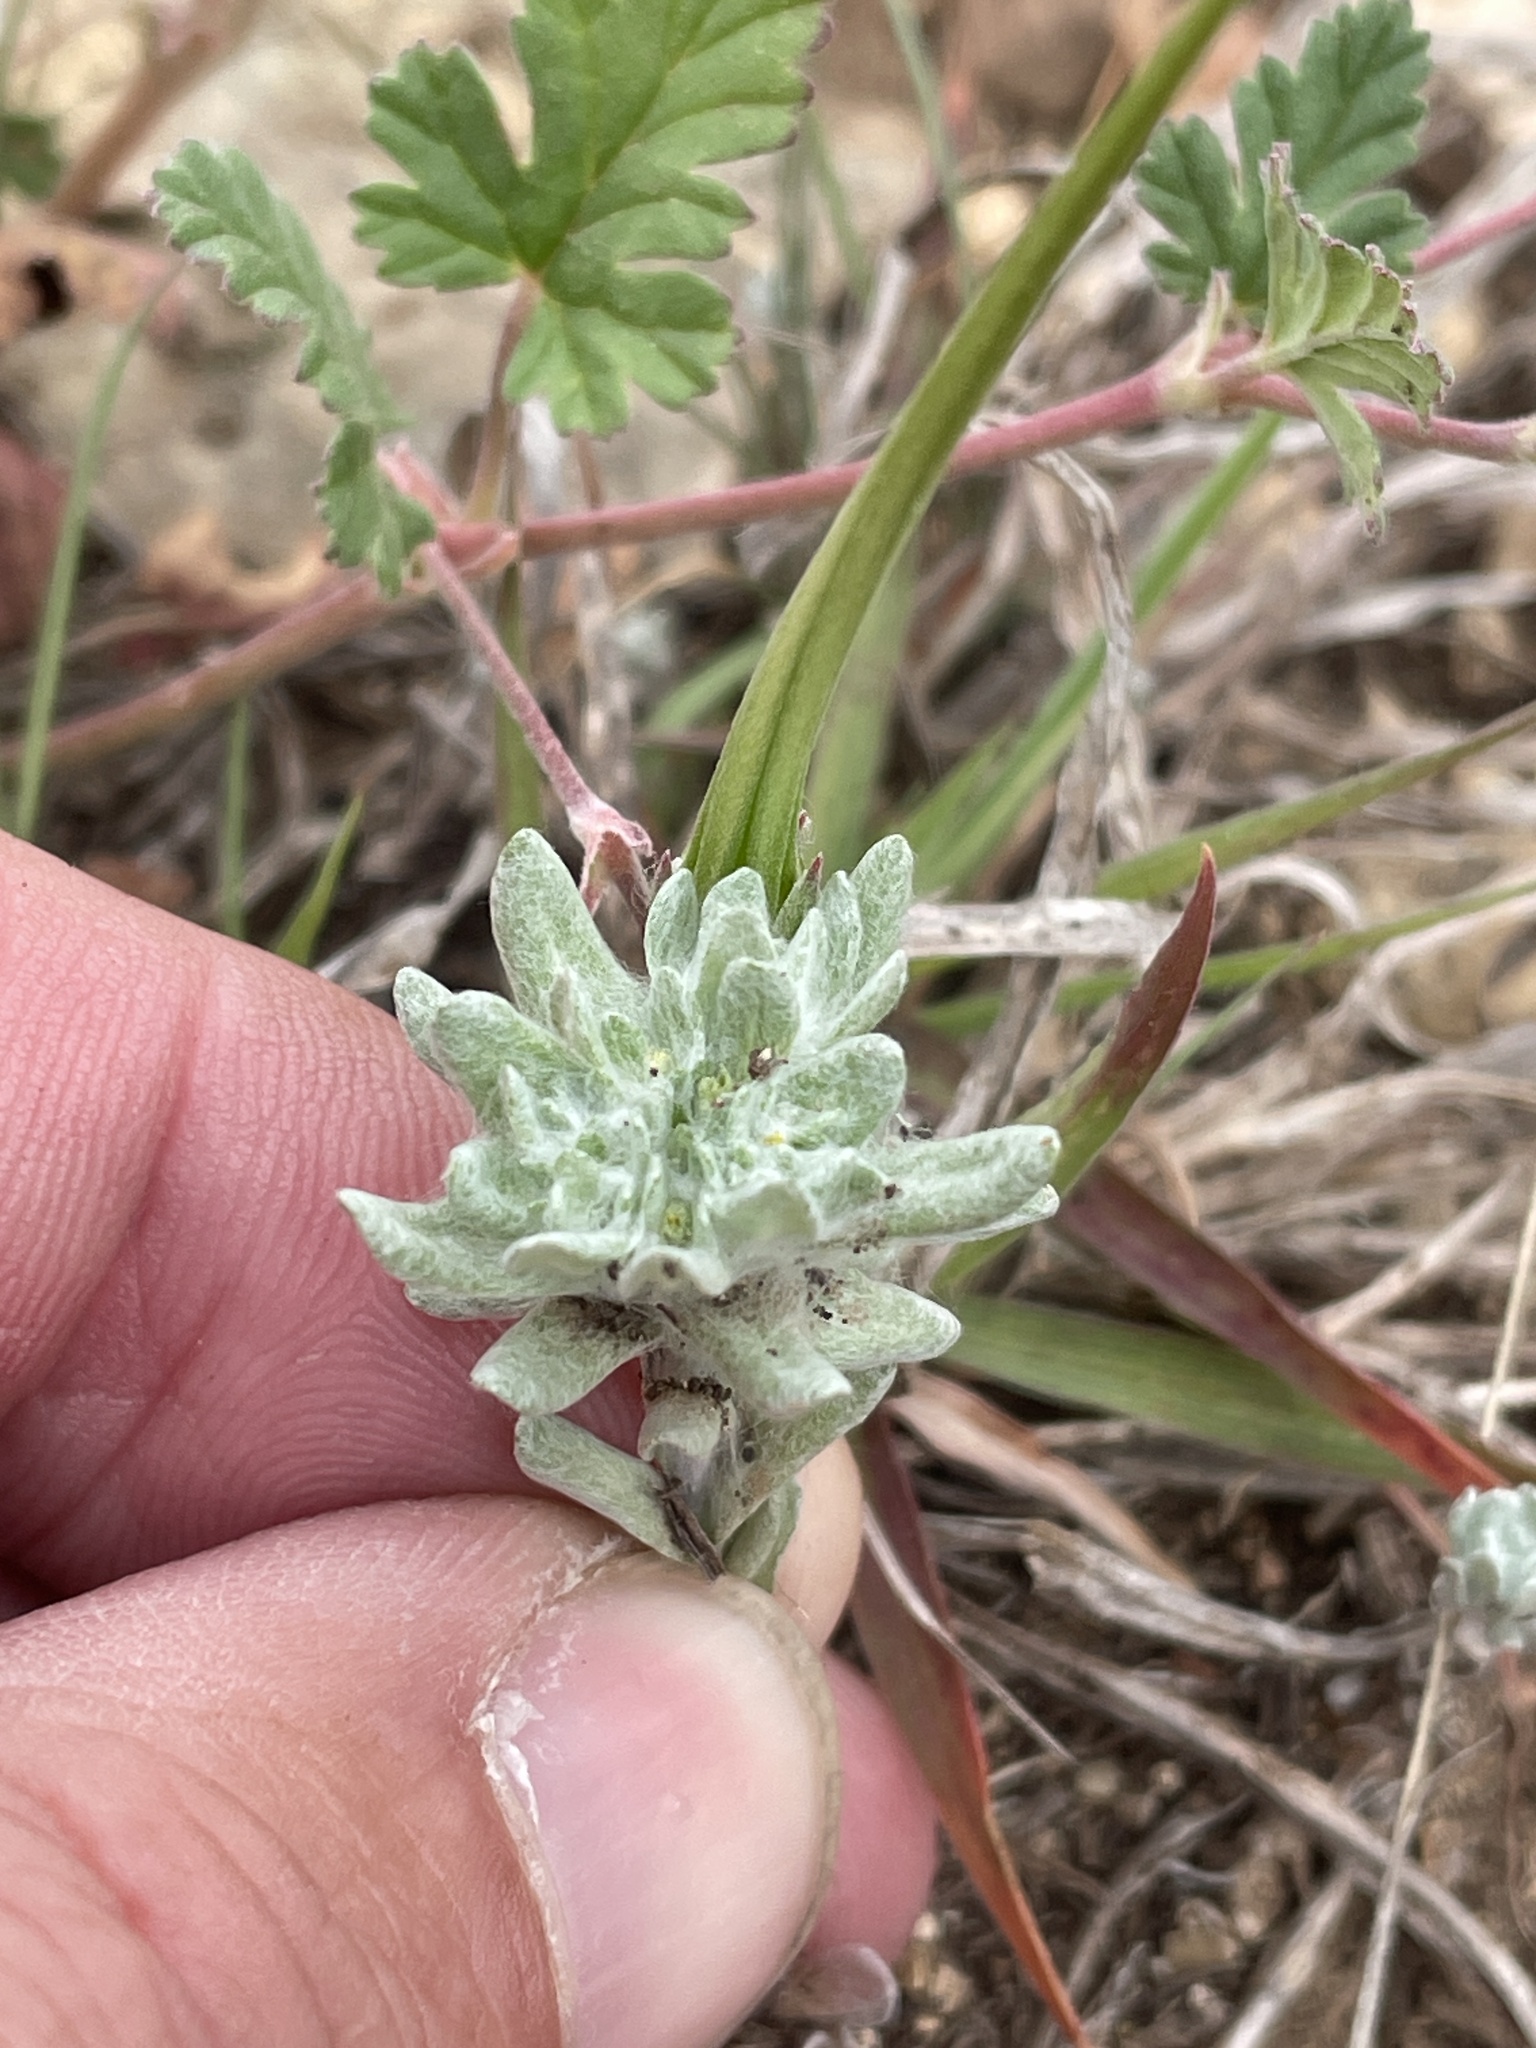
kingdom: Plantae
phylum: Tracheophyta
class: Magnoliopsida
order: Asterales
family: Asteraceae
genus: Diaperia
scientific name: Diaperia prolifera
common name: Big-head rabbit-tobacco
